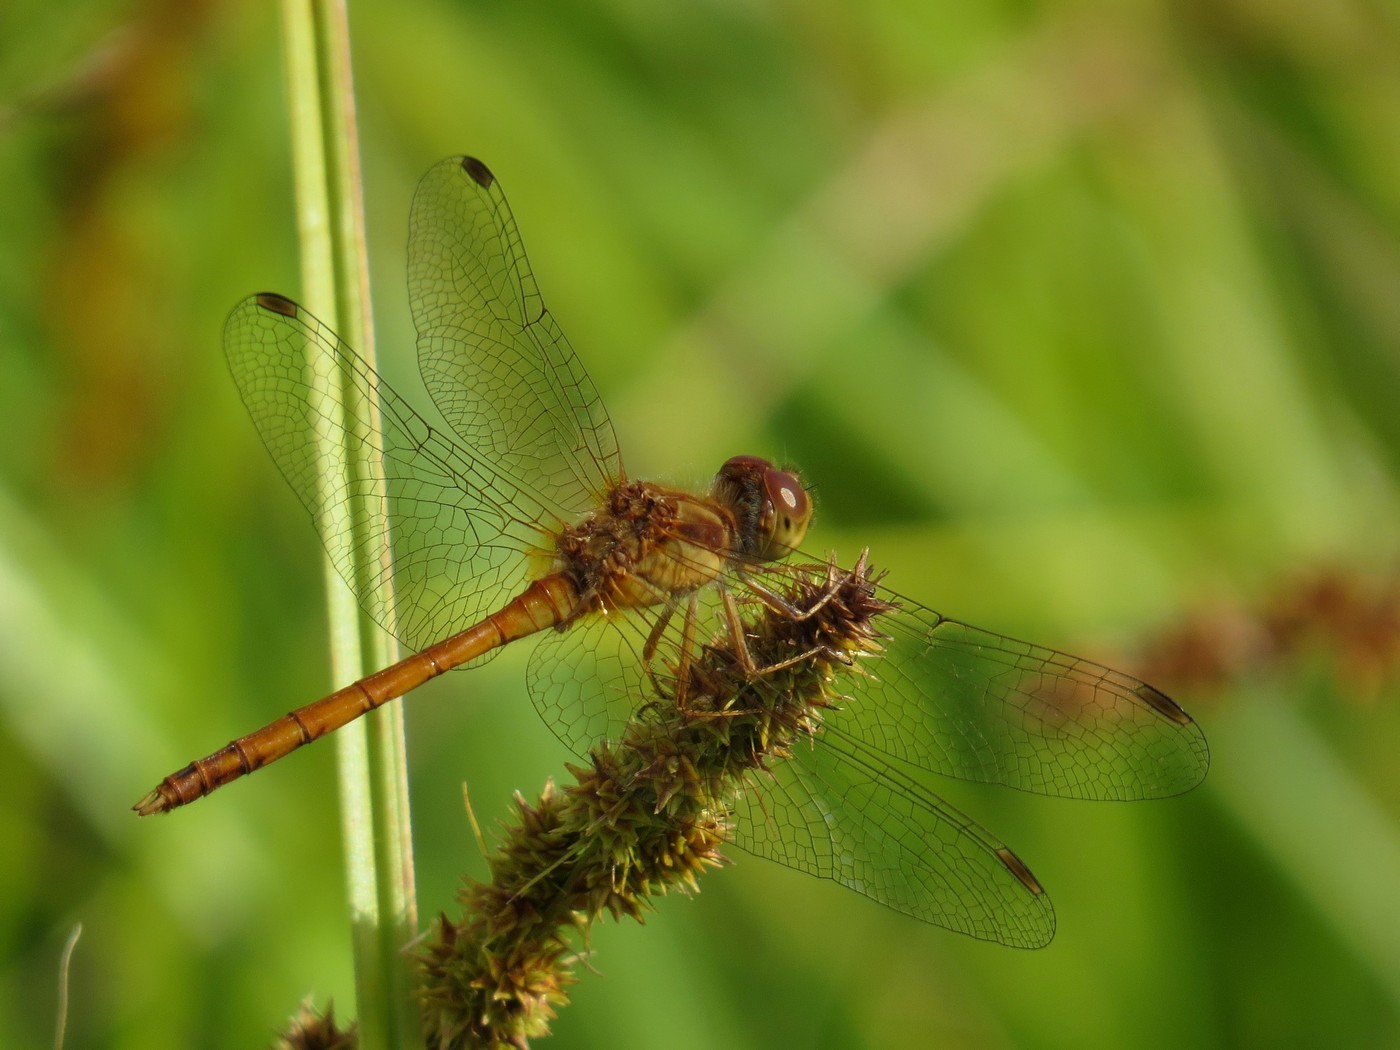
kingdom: Animalia
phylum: Arthropoda
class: Insecta
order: Odonata
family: Libellulidae
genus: Sympetrum
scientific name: Sympetrum vicinum
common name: Autumn meadowhawk
